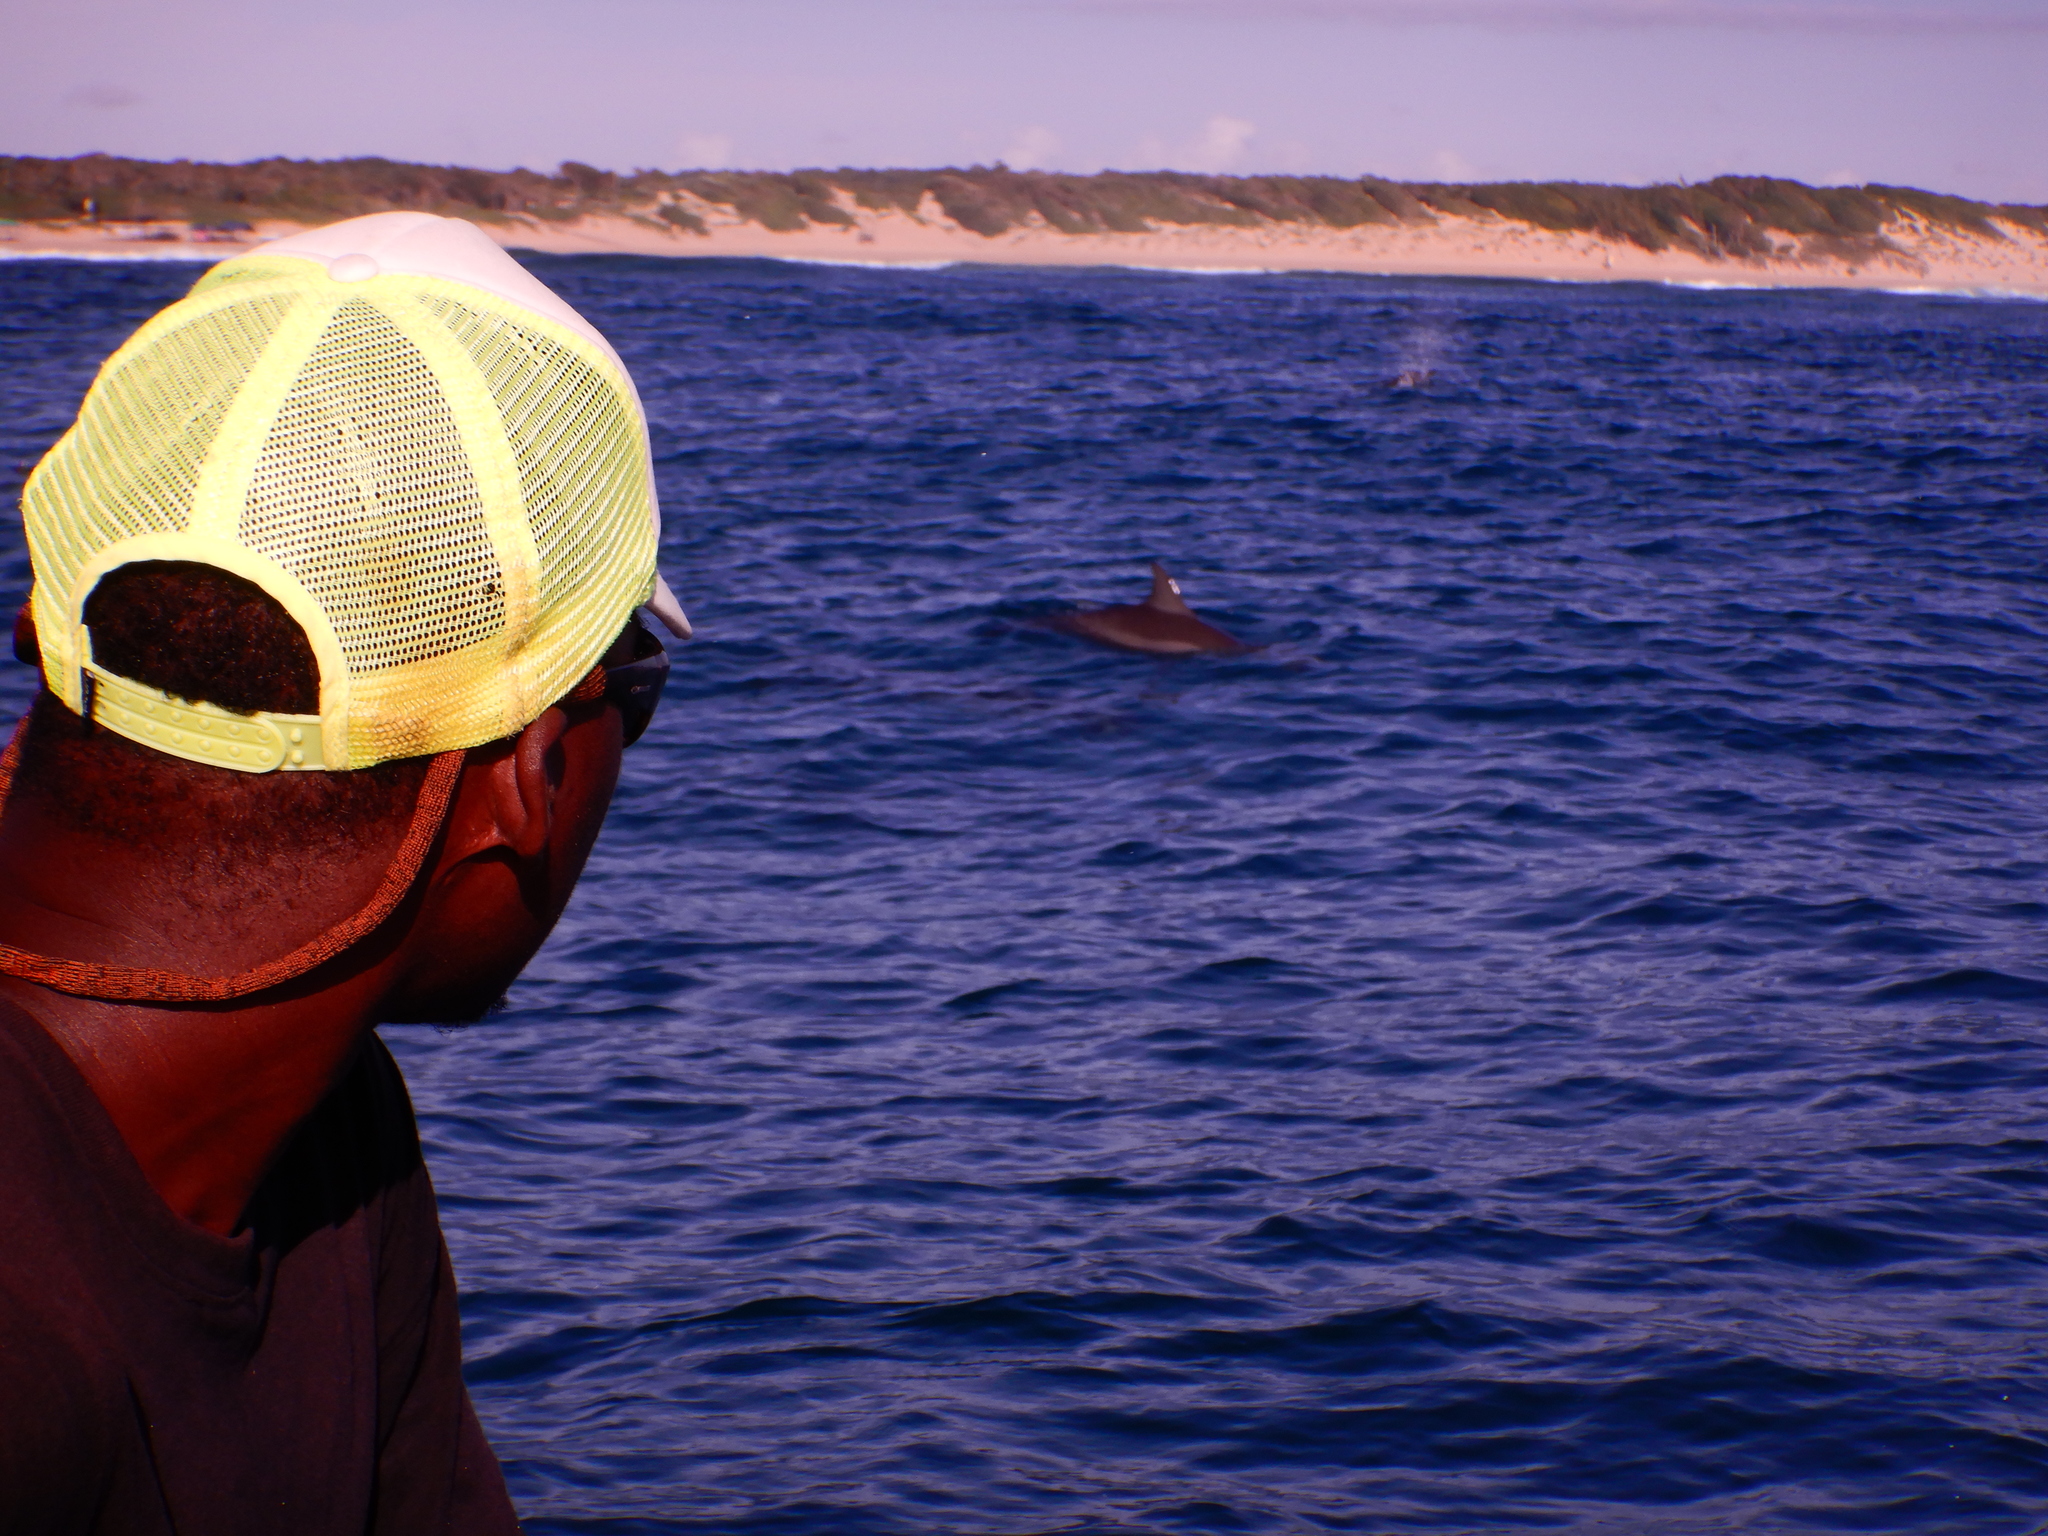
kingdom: Animalia
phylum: Chordata
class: Mammalia
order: Cetacea
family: Delphinidae
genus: Tursiops
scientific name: Tursiops aduncus
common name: Indo-pacific bottlenose dolphin
